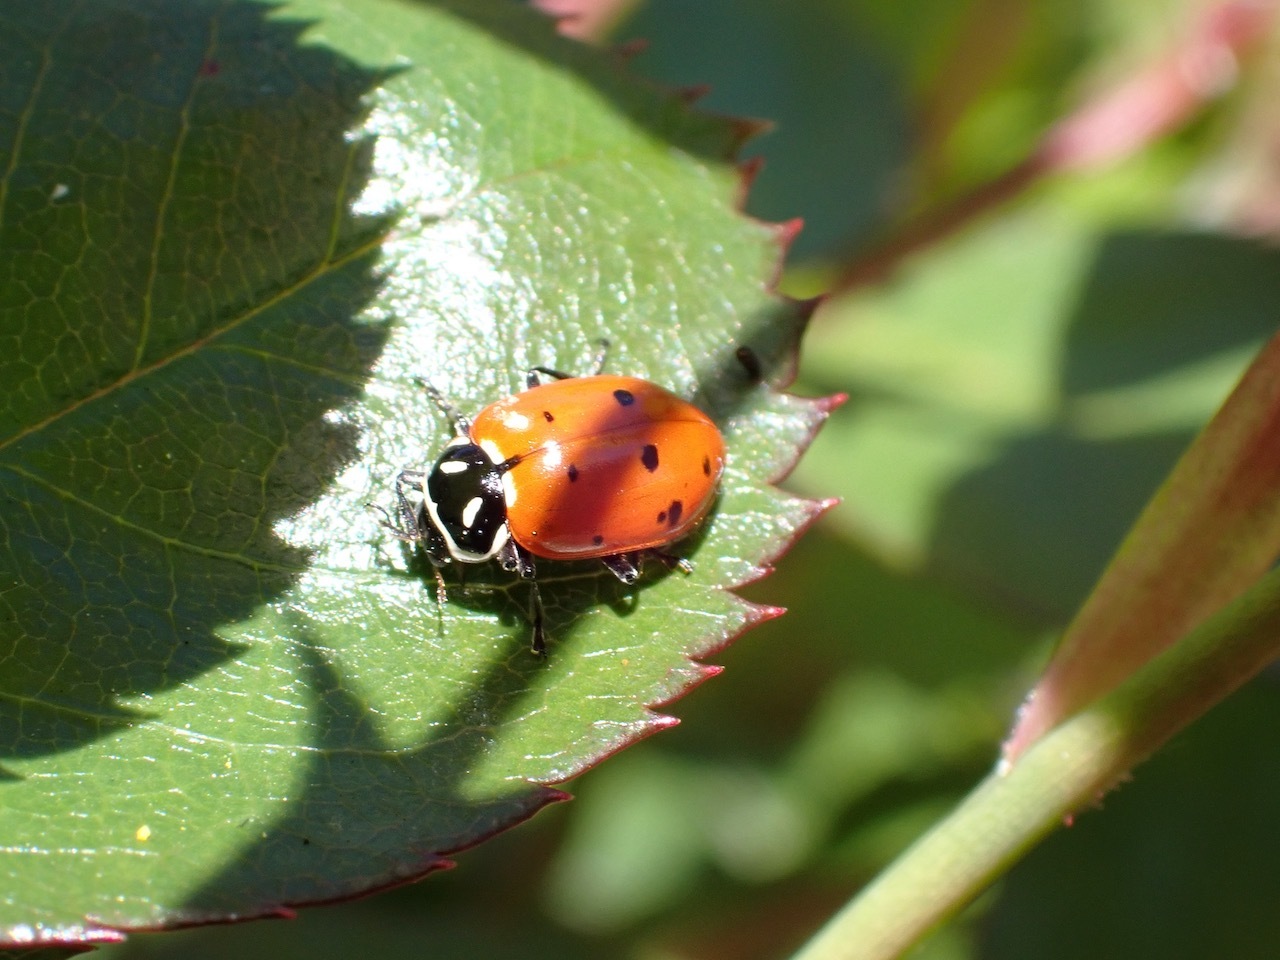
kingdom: Animalia
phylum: Arthropoda
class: Insecta
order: Coleoptera
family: Coccinellidae
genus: Hippodamia
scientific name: Hippodamia convergens
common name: Convergent lady beetle
